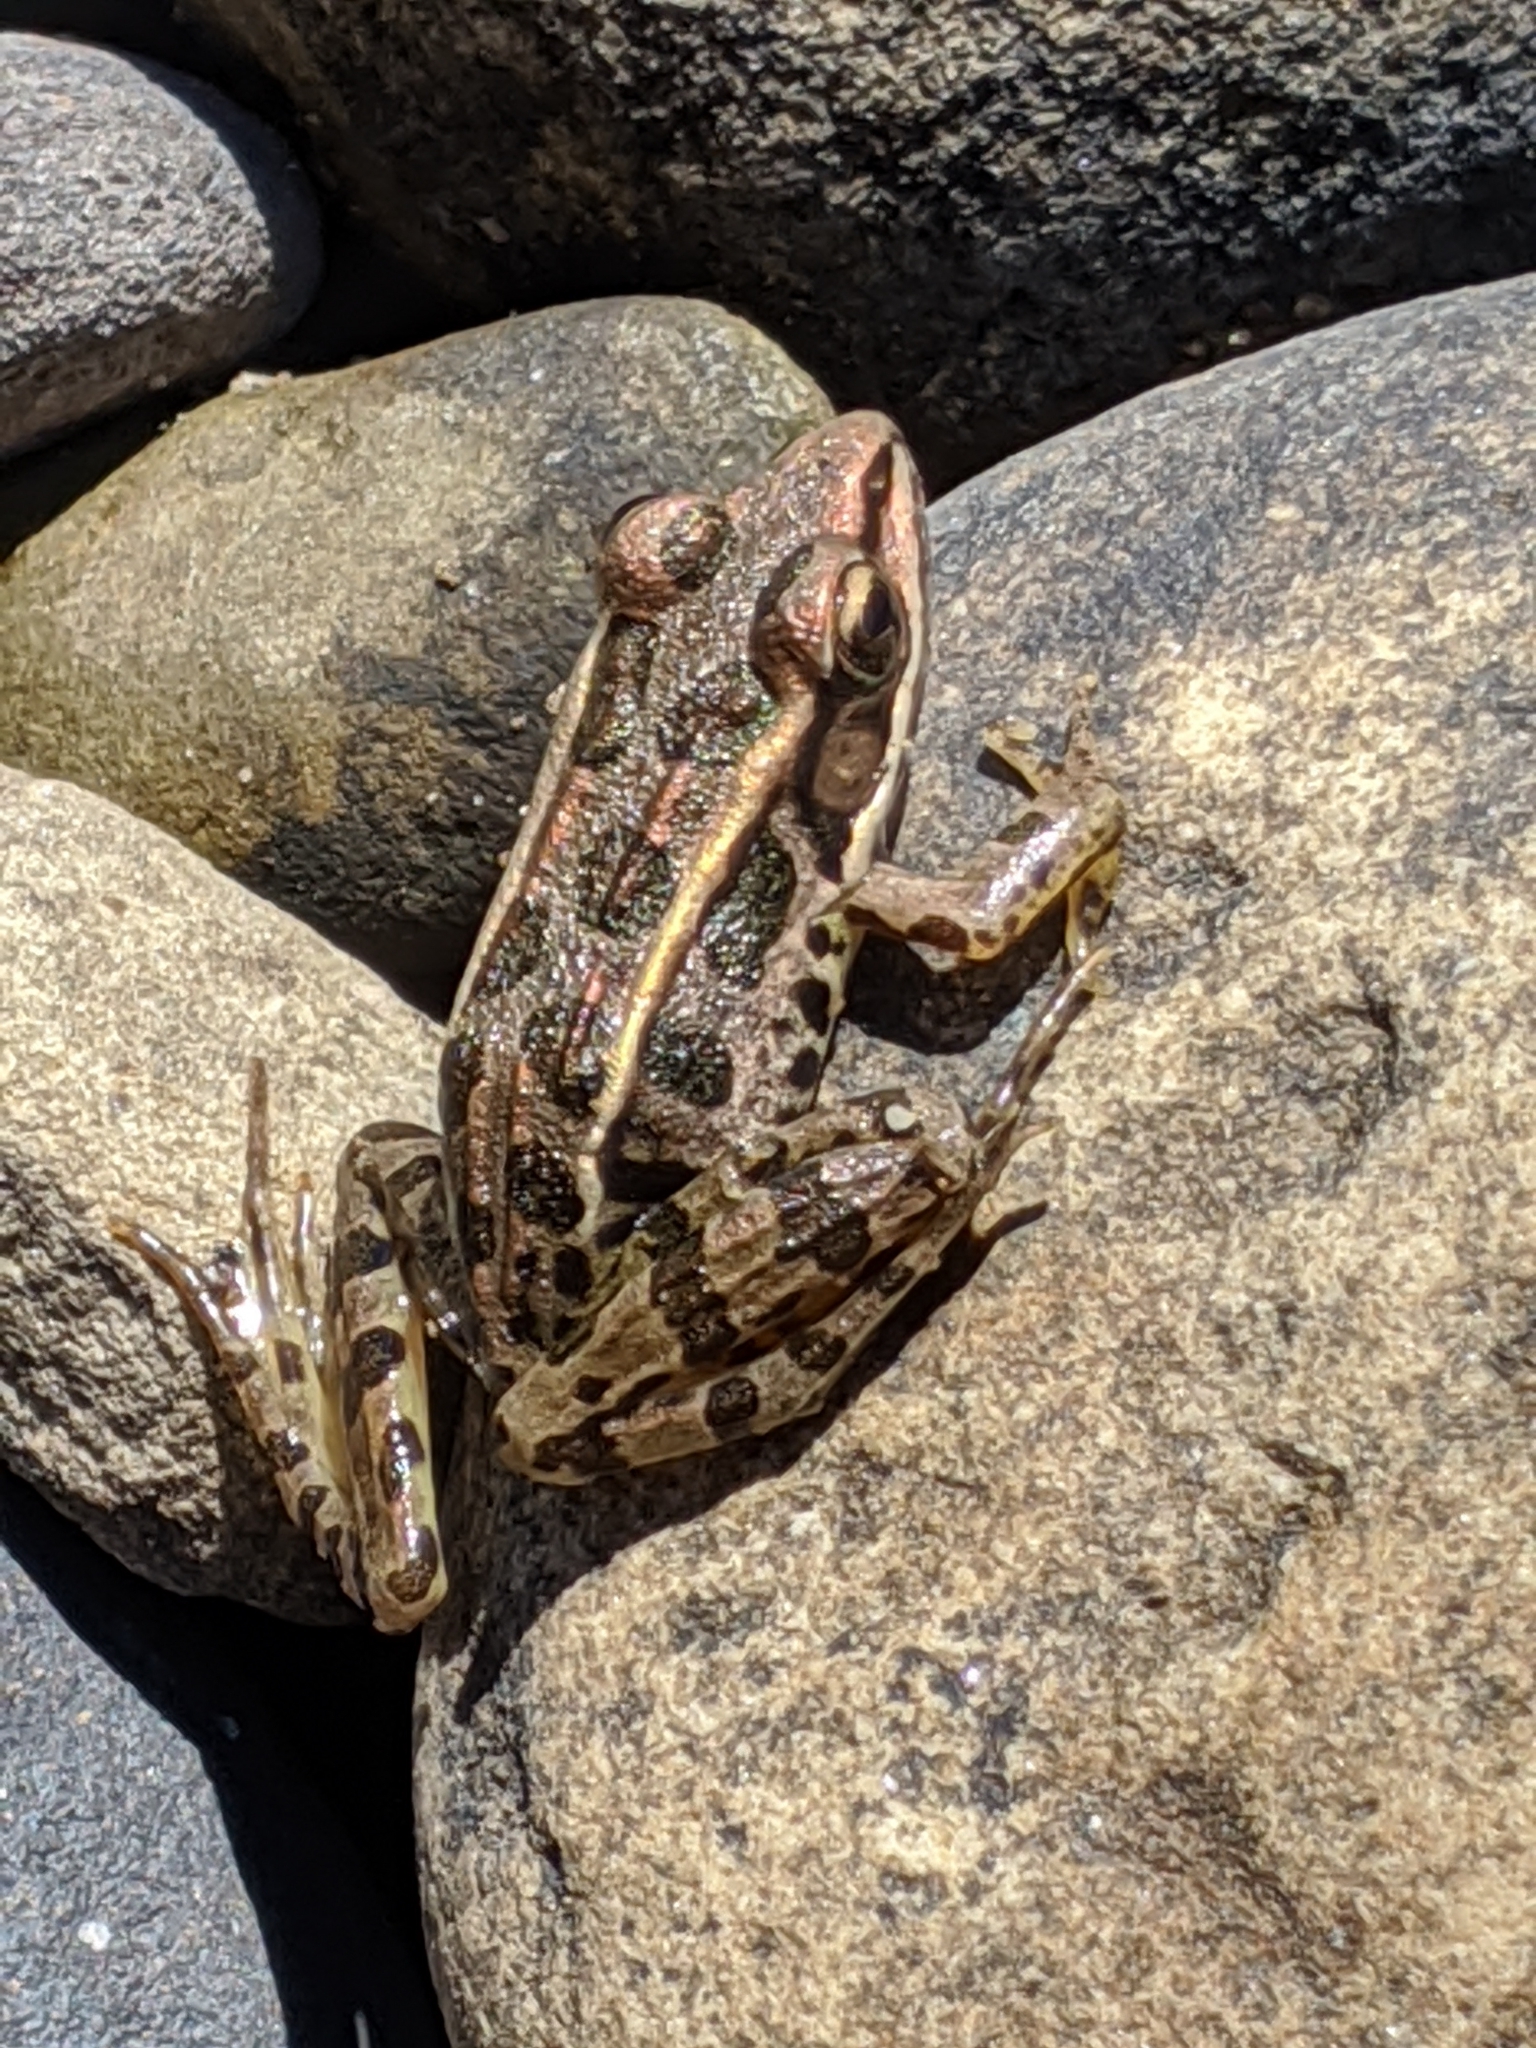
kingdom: Animalia
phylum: Chordata
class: Amphibia
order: Anura
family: Ranidae
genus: Lithobates
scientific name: Lithobates palustris
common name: Pickerel frog
